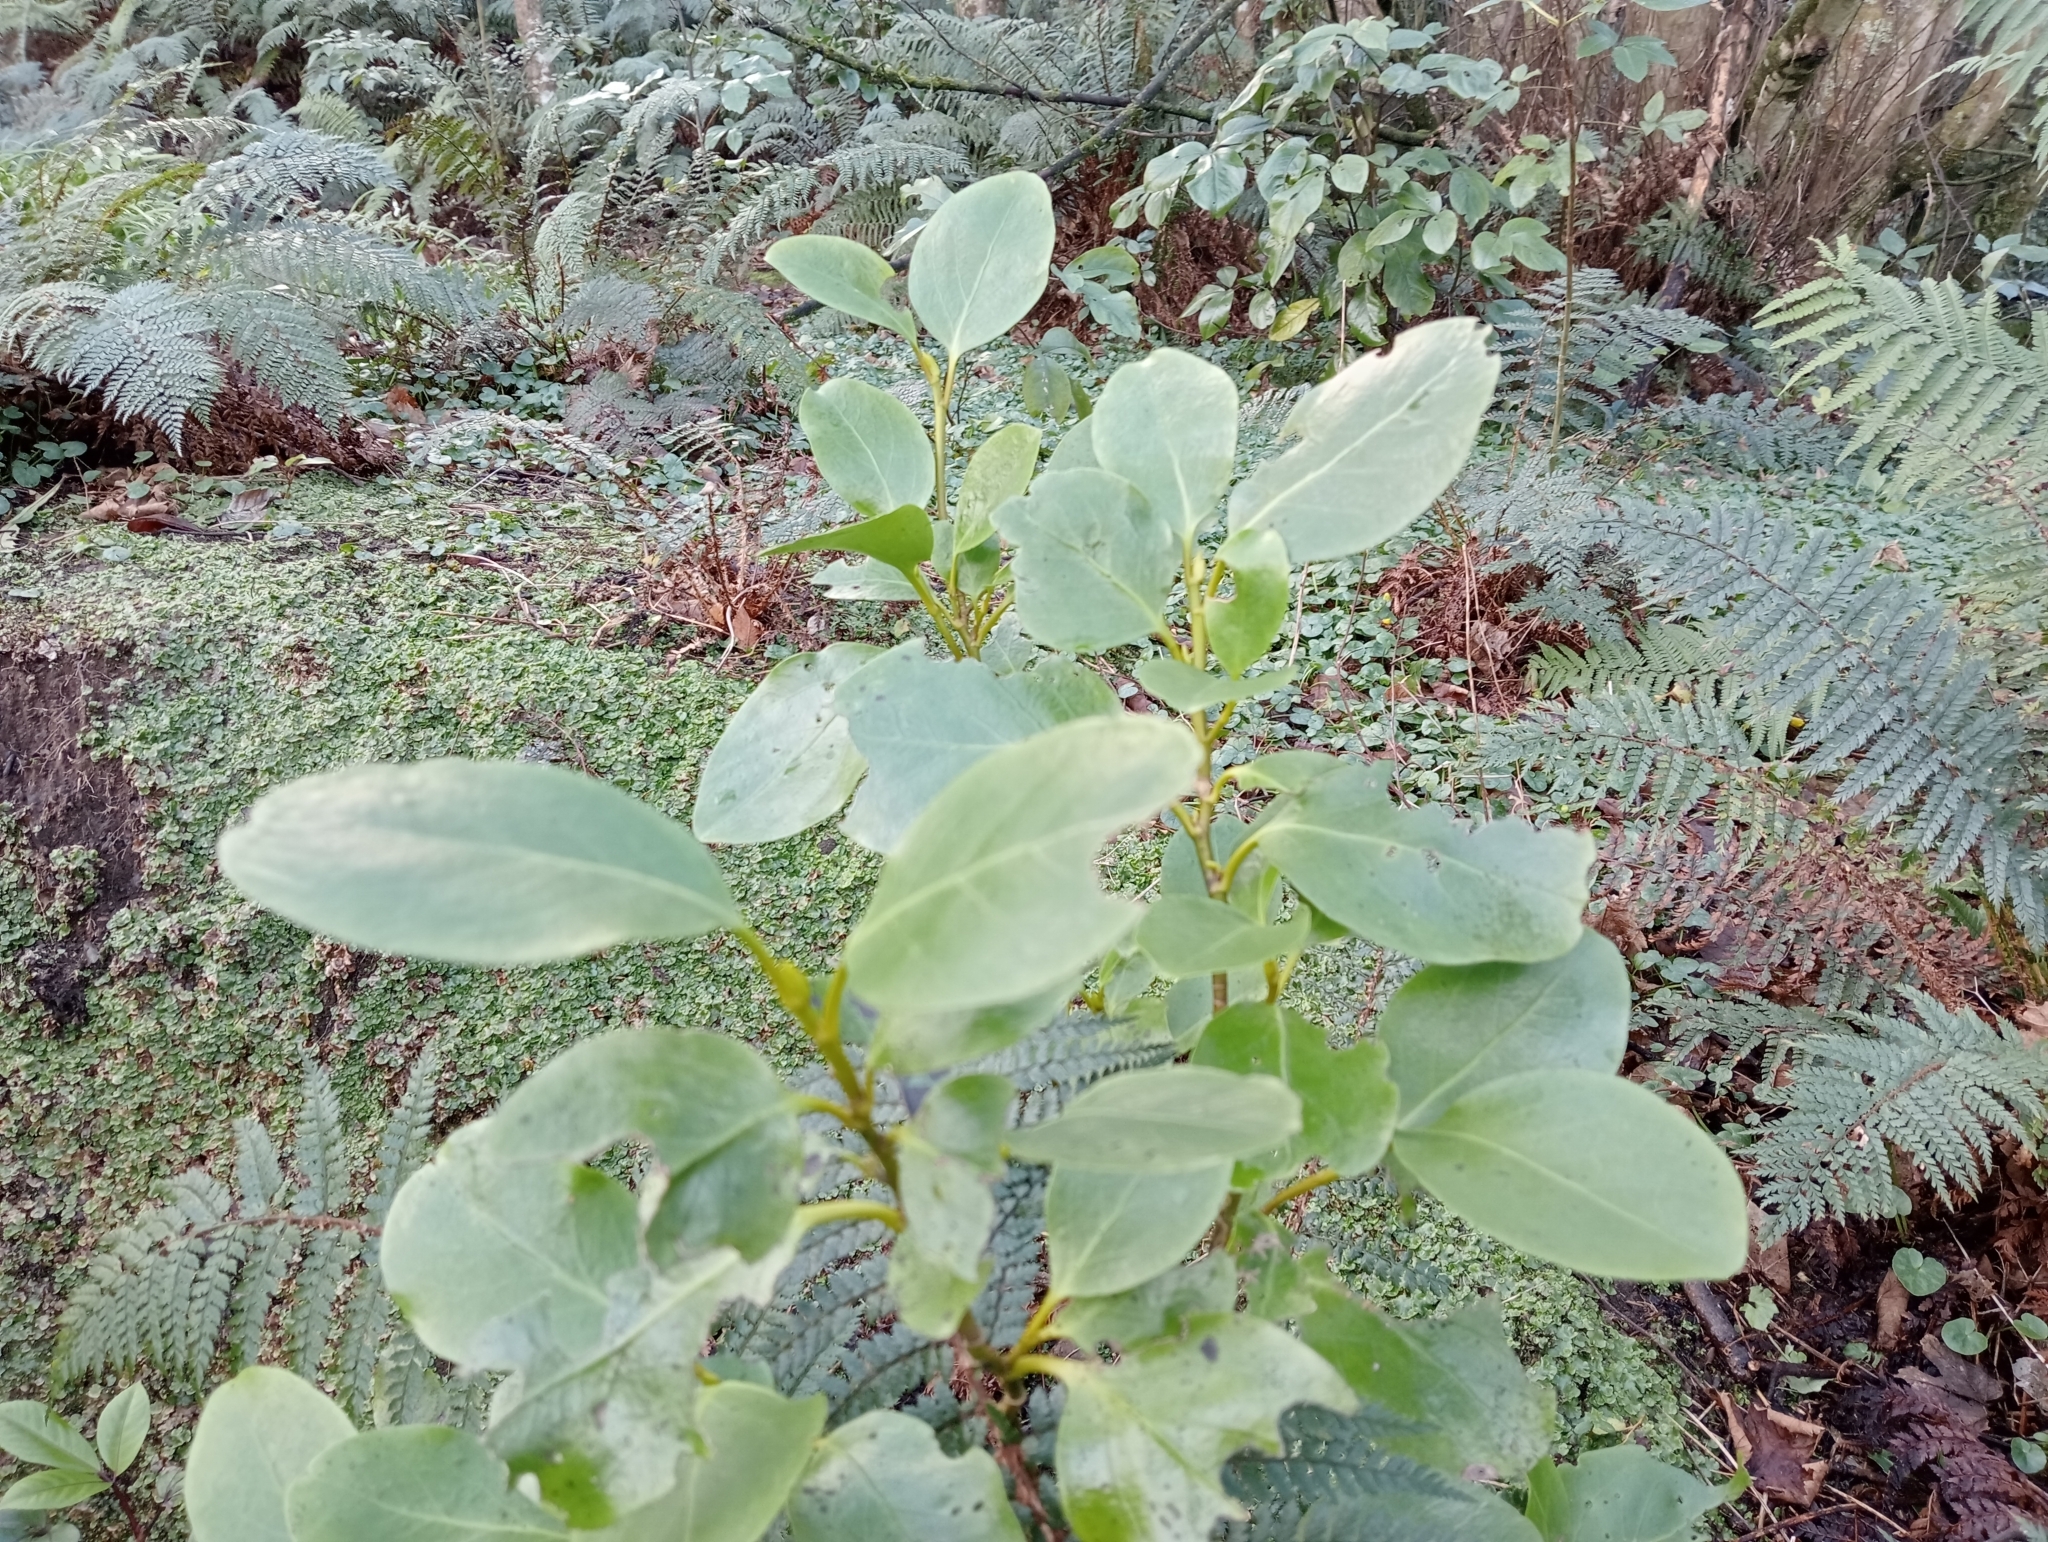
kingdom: Plantae
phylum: Tracheophyta
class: Magnoliopsida
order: Apiales
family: Griseliniaceae
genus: Griselinia
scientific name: Griselinia littoralis
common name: New zealand broadleaf
